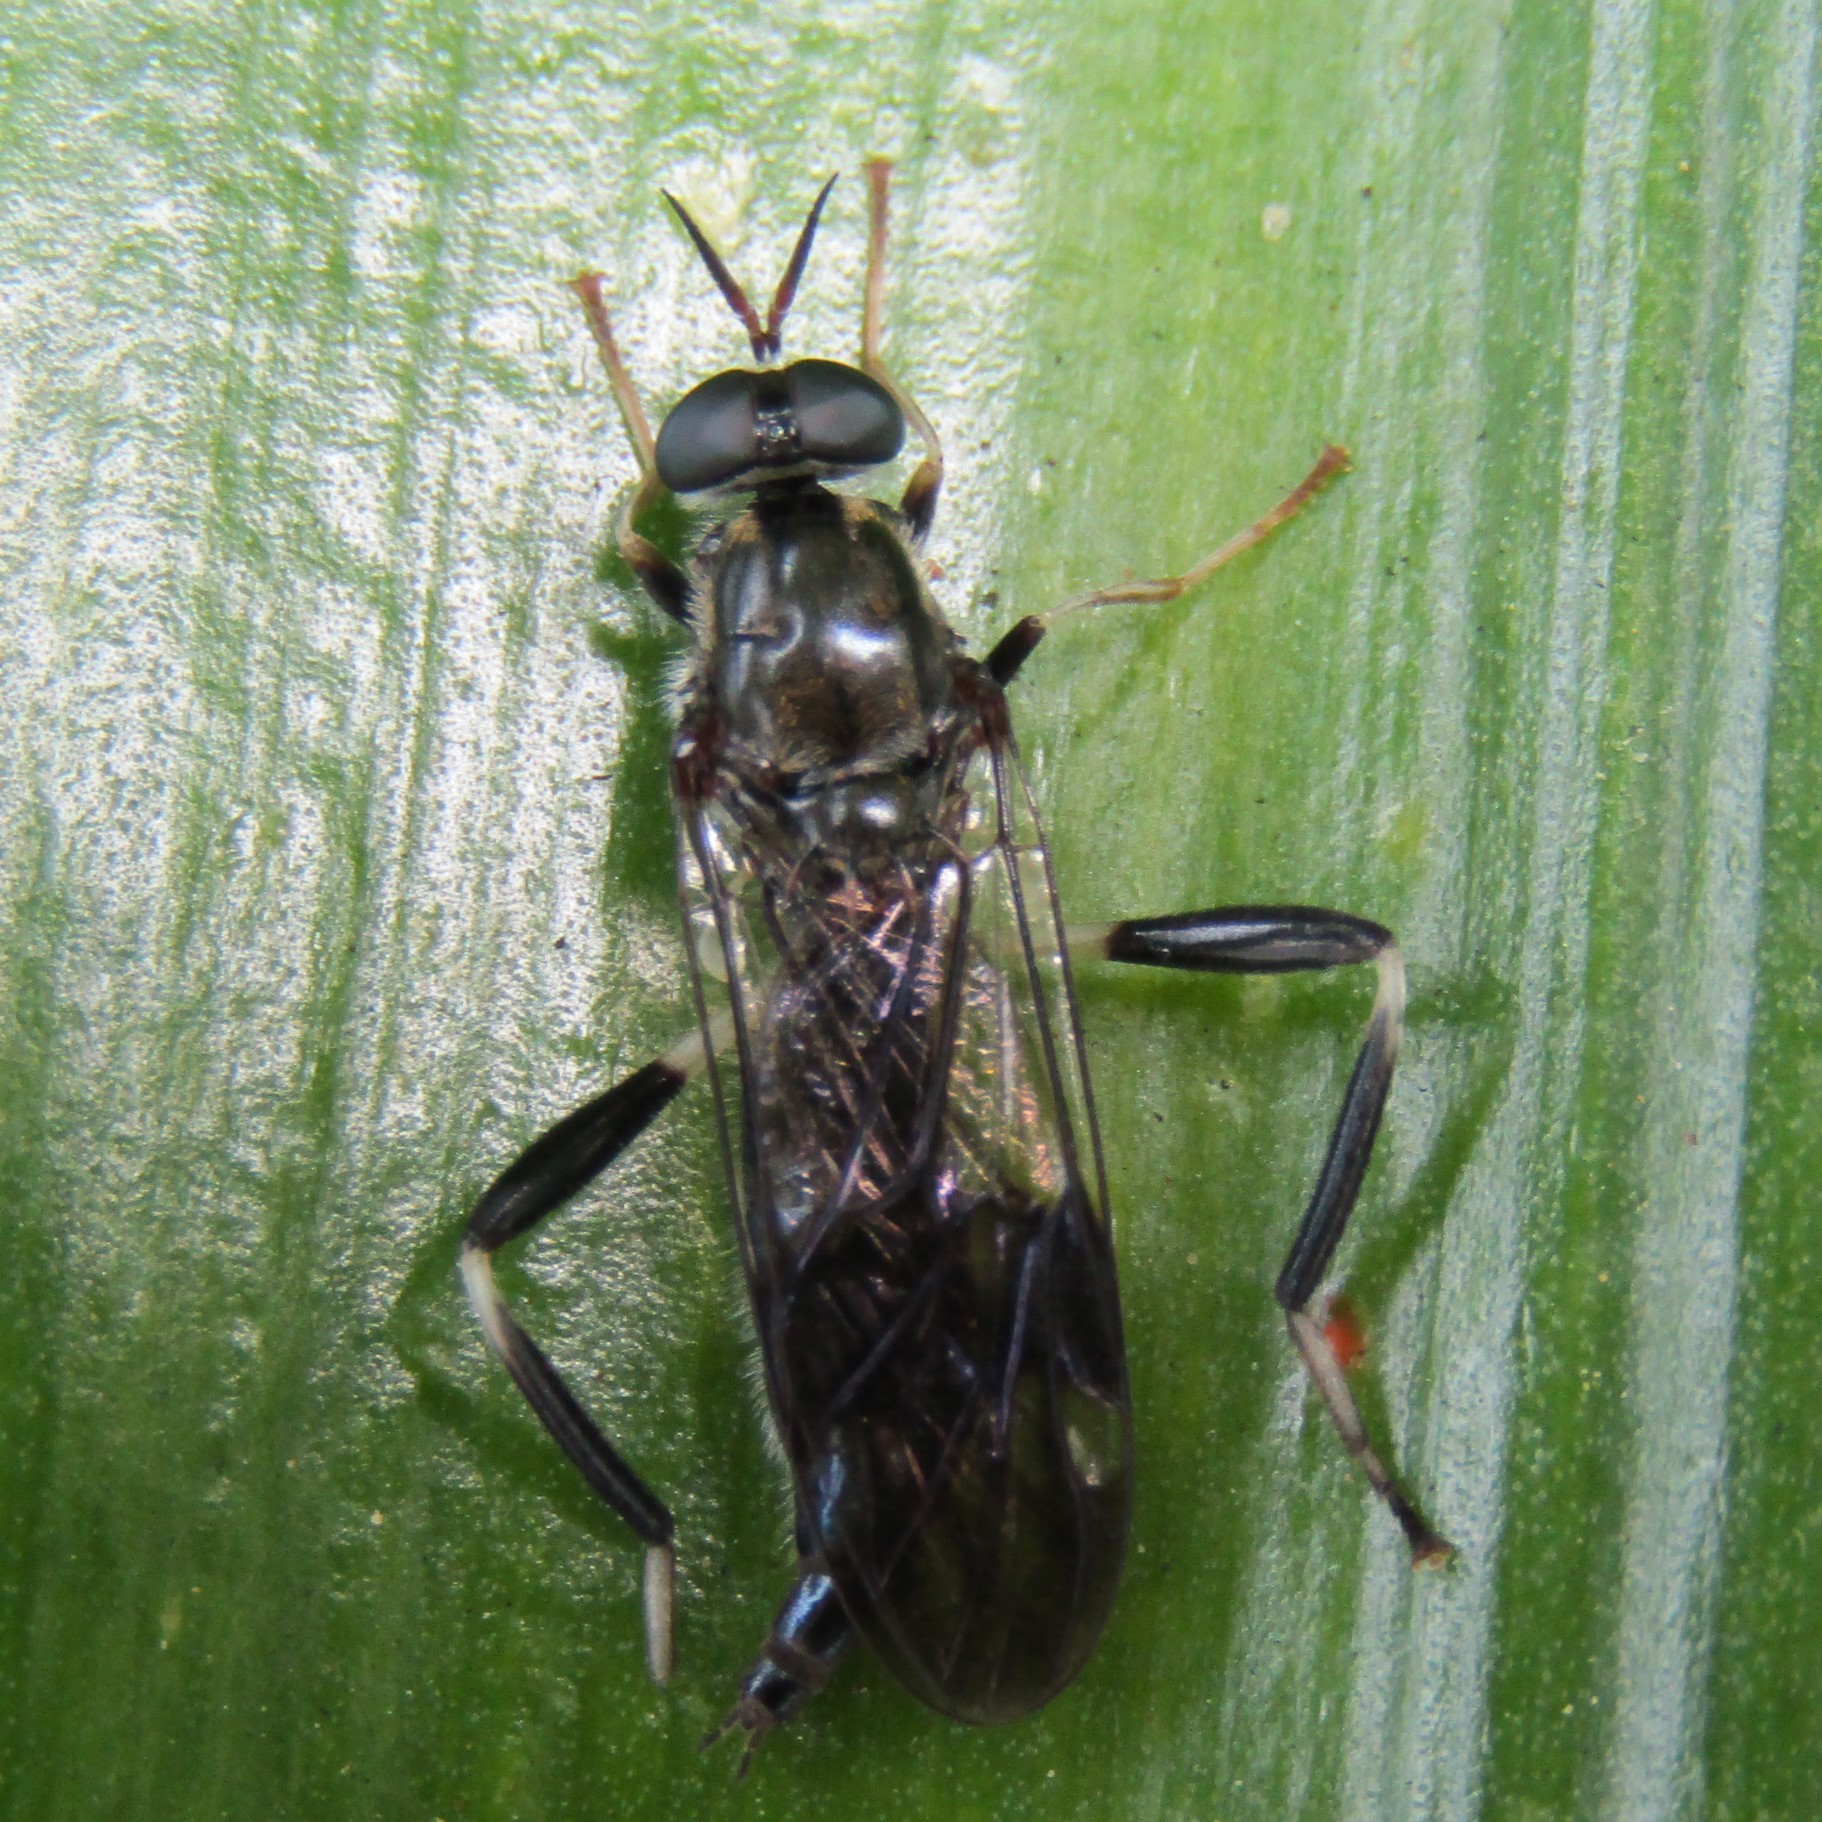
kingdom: Animalia
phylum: Arthropoda
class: Insecta
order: Diptera
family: Stratiomyidae
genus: Exaireta
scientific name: Exaireta spinigera
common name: Blue soldier fly
